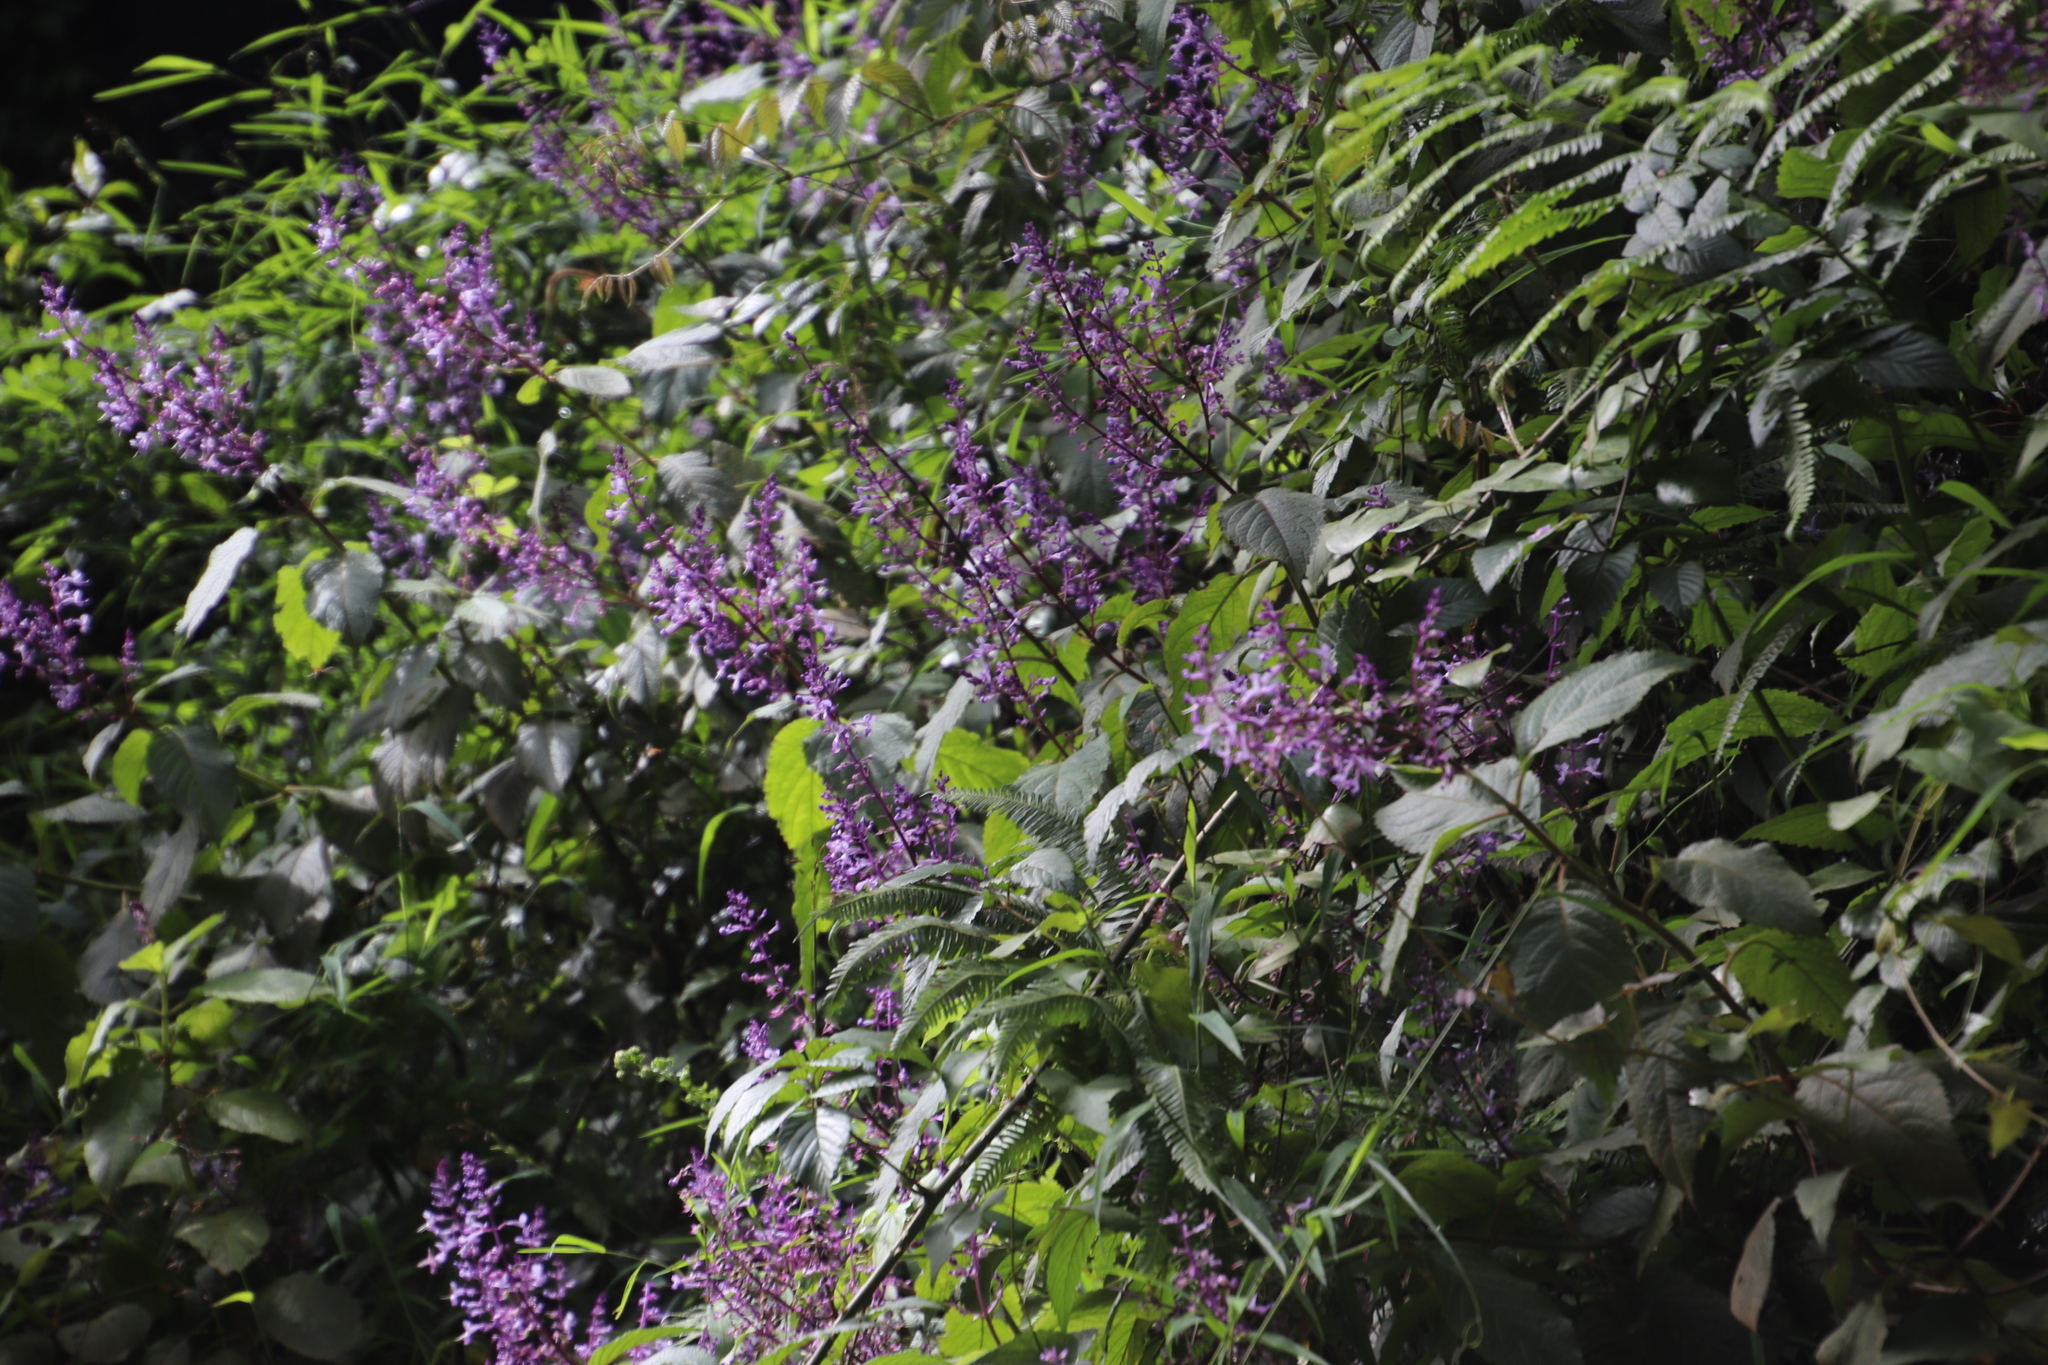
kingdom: Plantae
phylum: Tracheophyta
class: Magnoliopsida
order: Lamiales
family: Lamiaceae
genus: Plectranthus
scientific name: Plectranthus fruticosus
